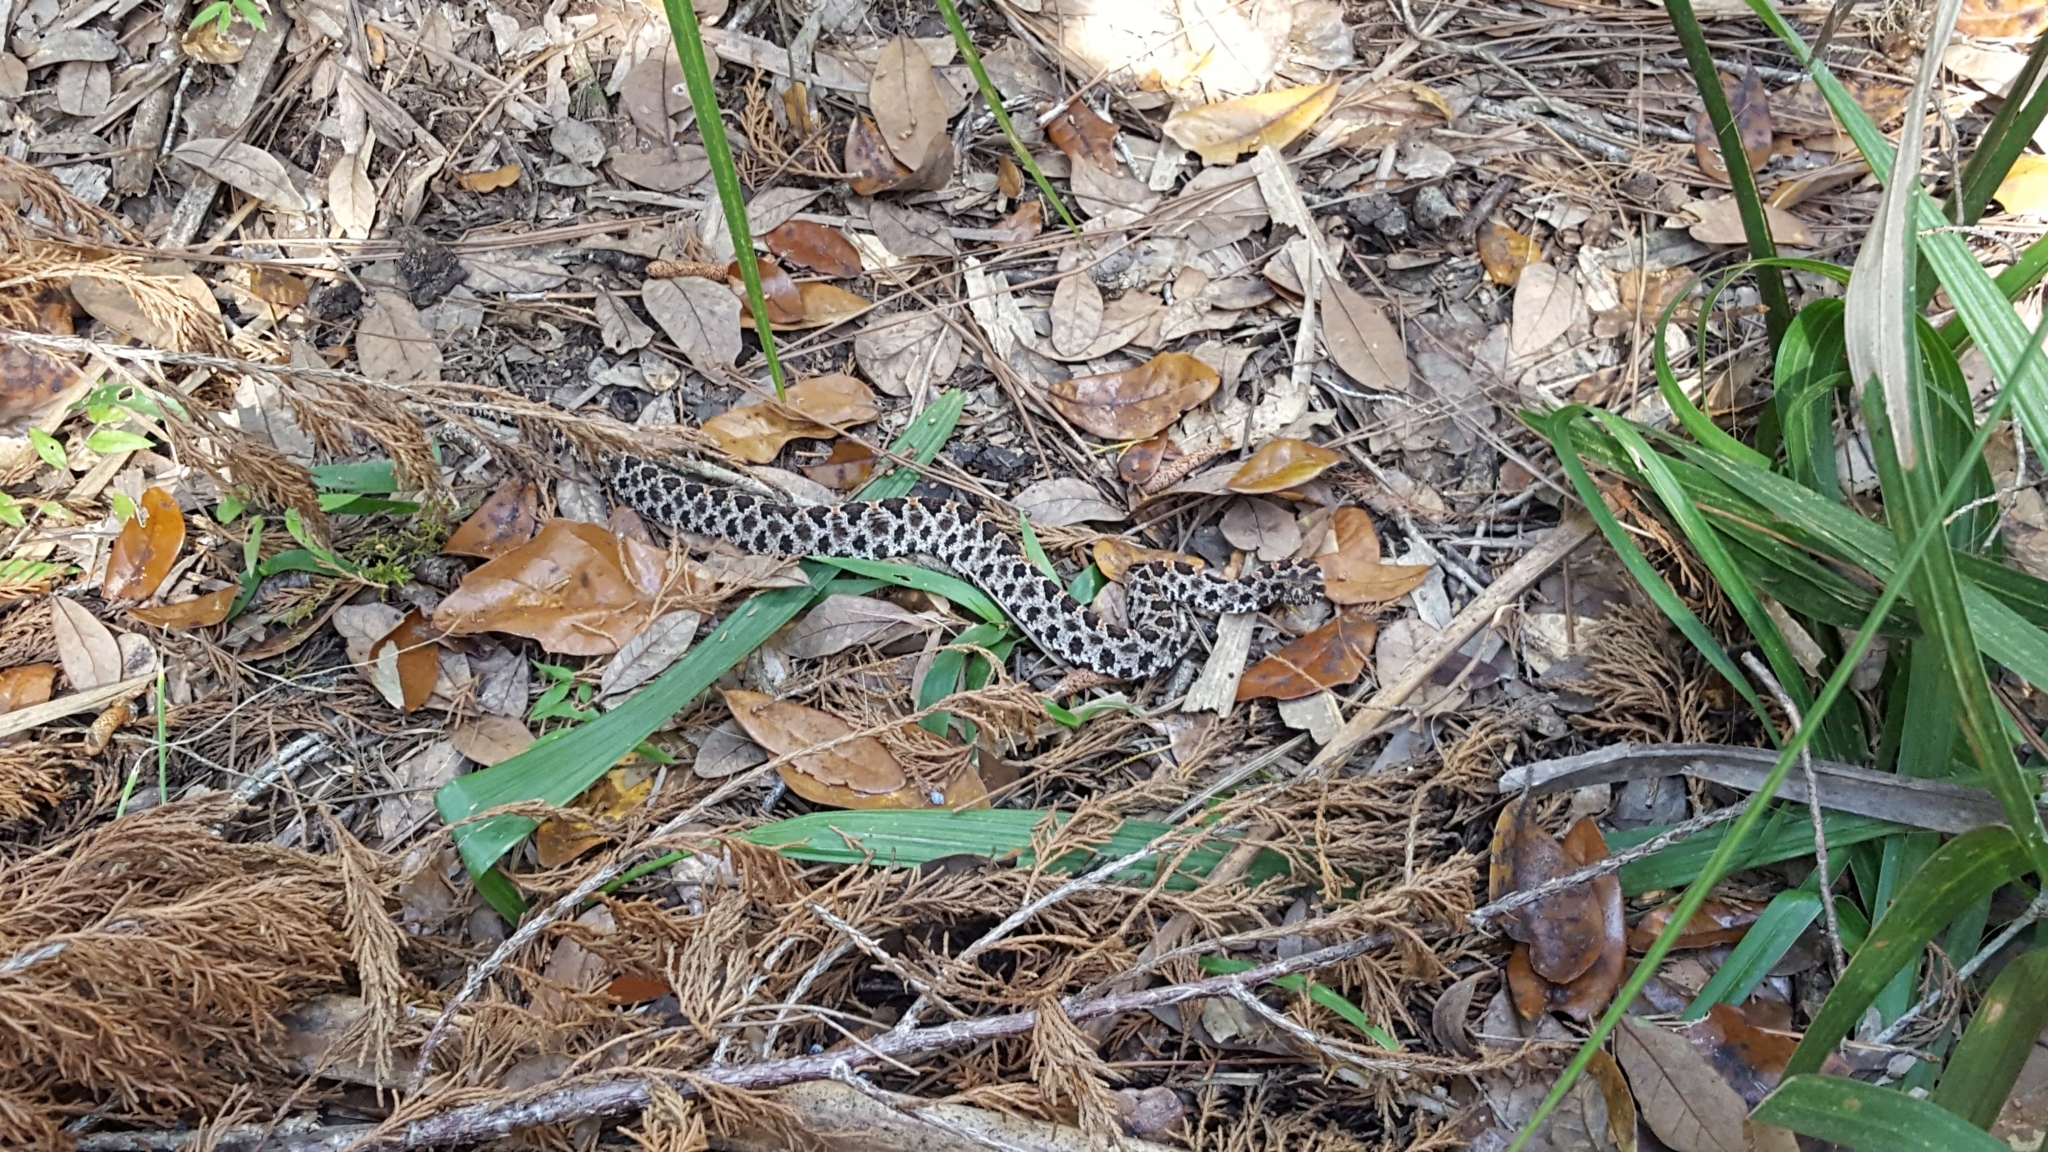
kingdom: Animalia
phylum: Chordata
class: Squamata
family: Viperidae
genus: Sistrurus
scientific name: Sistrurus miliarius
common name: Pygmy rattlesnake
